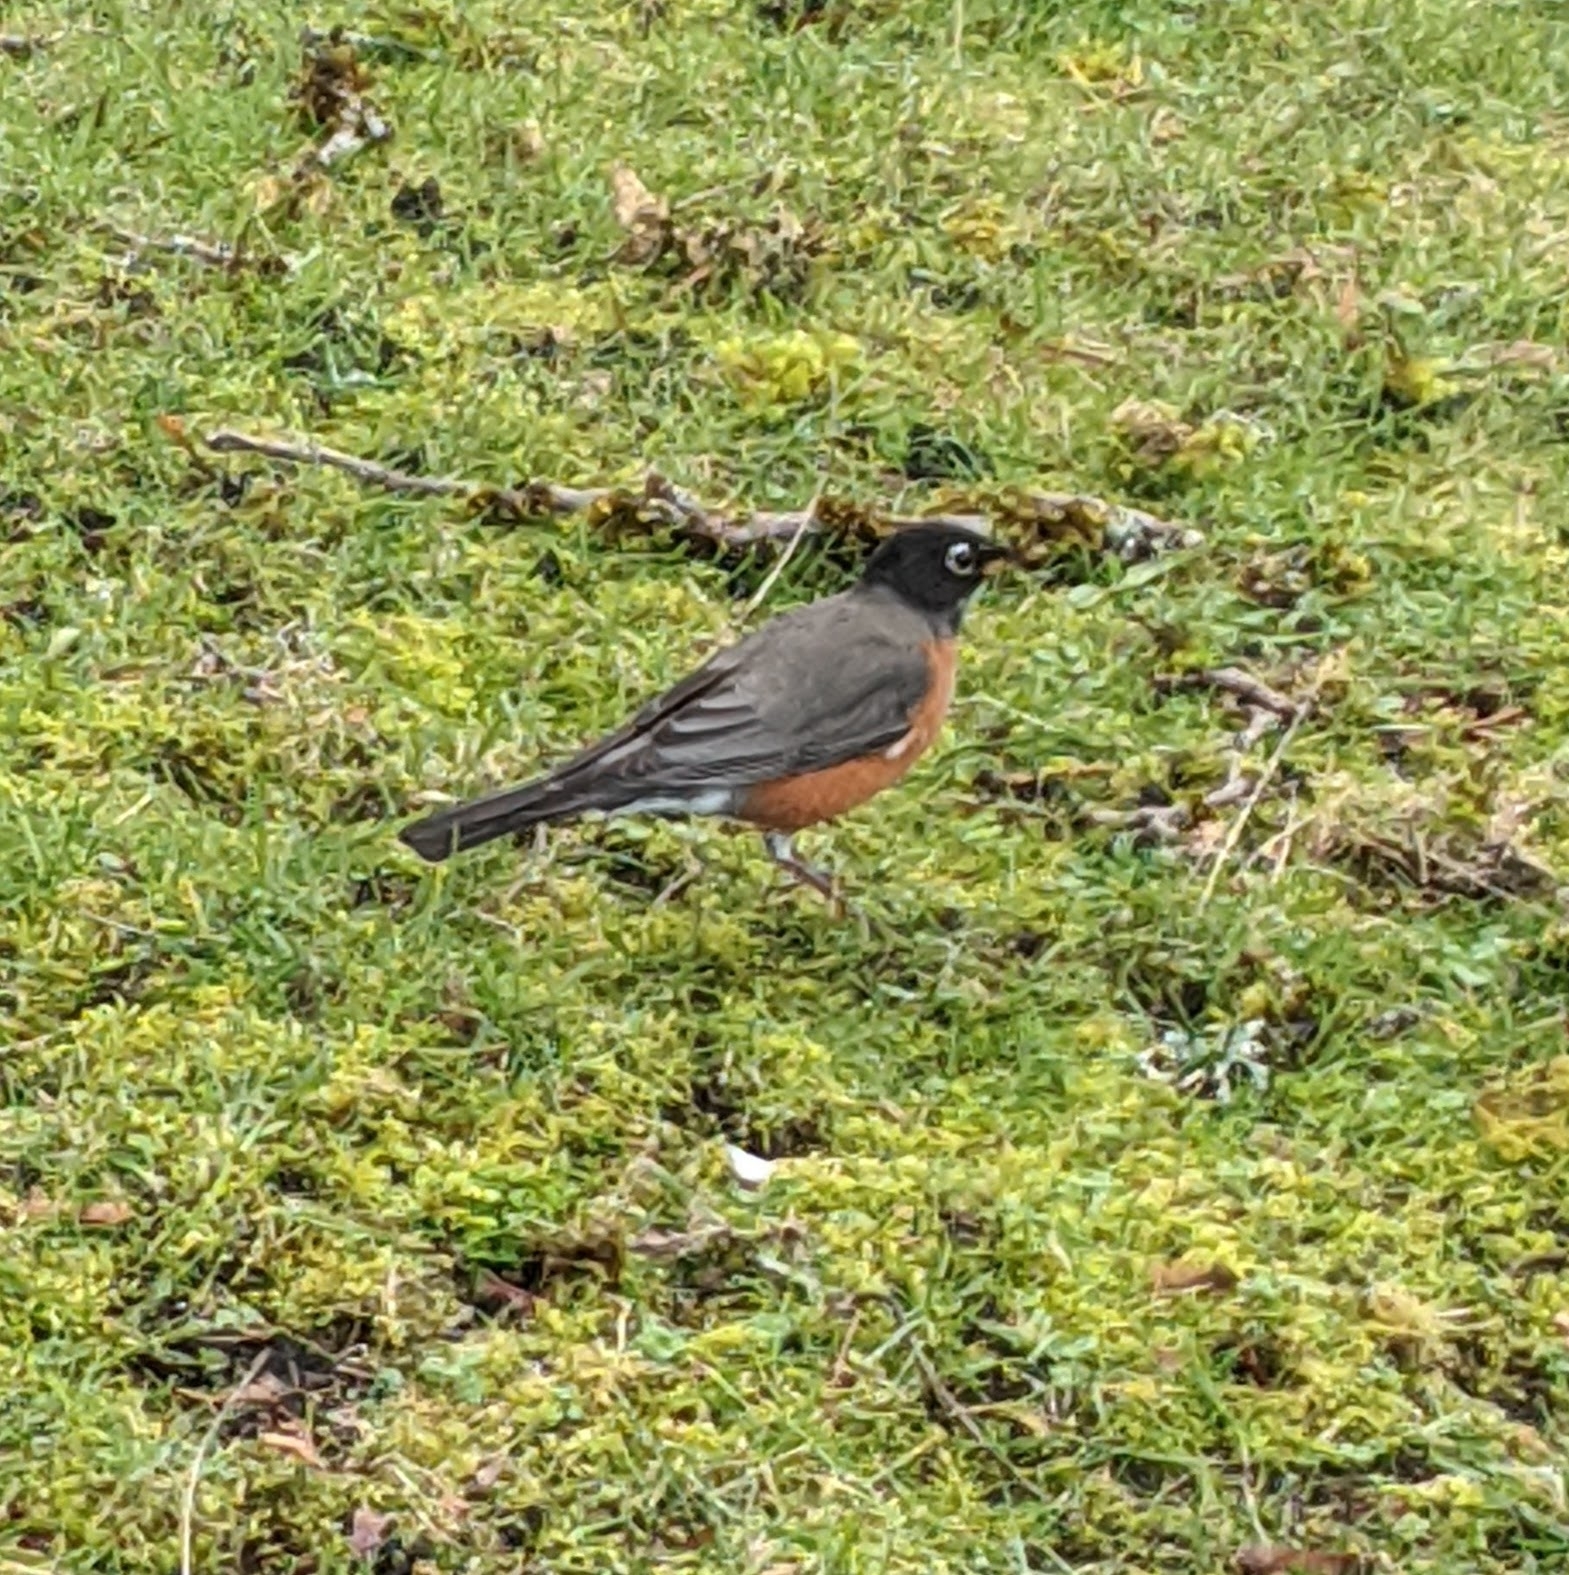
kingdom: Animalia
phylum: Chordata
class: Aves
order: Passeriformes
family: Turdidae
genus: Turdus
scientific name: Turdus migratorius
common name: American robin
